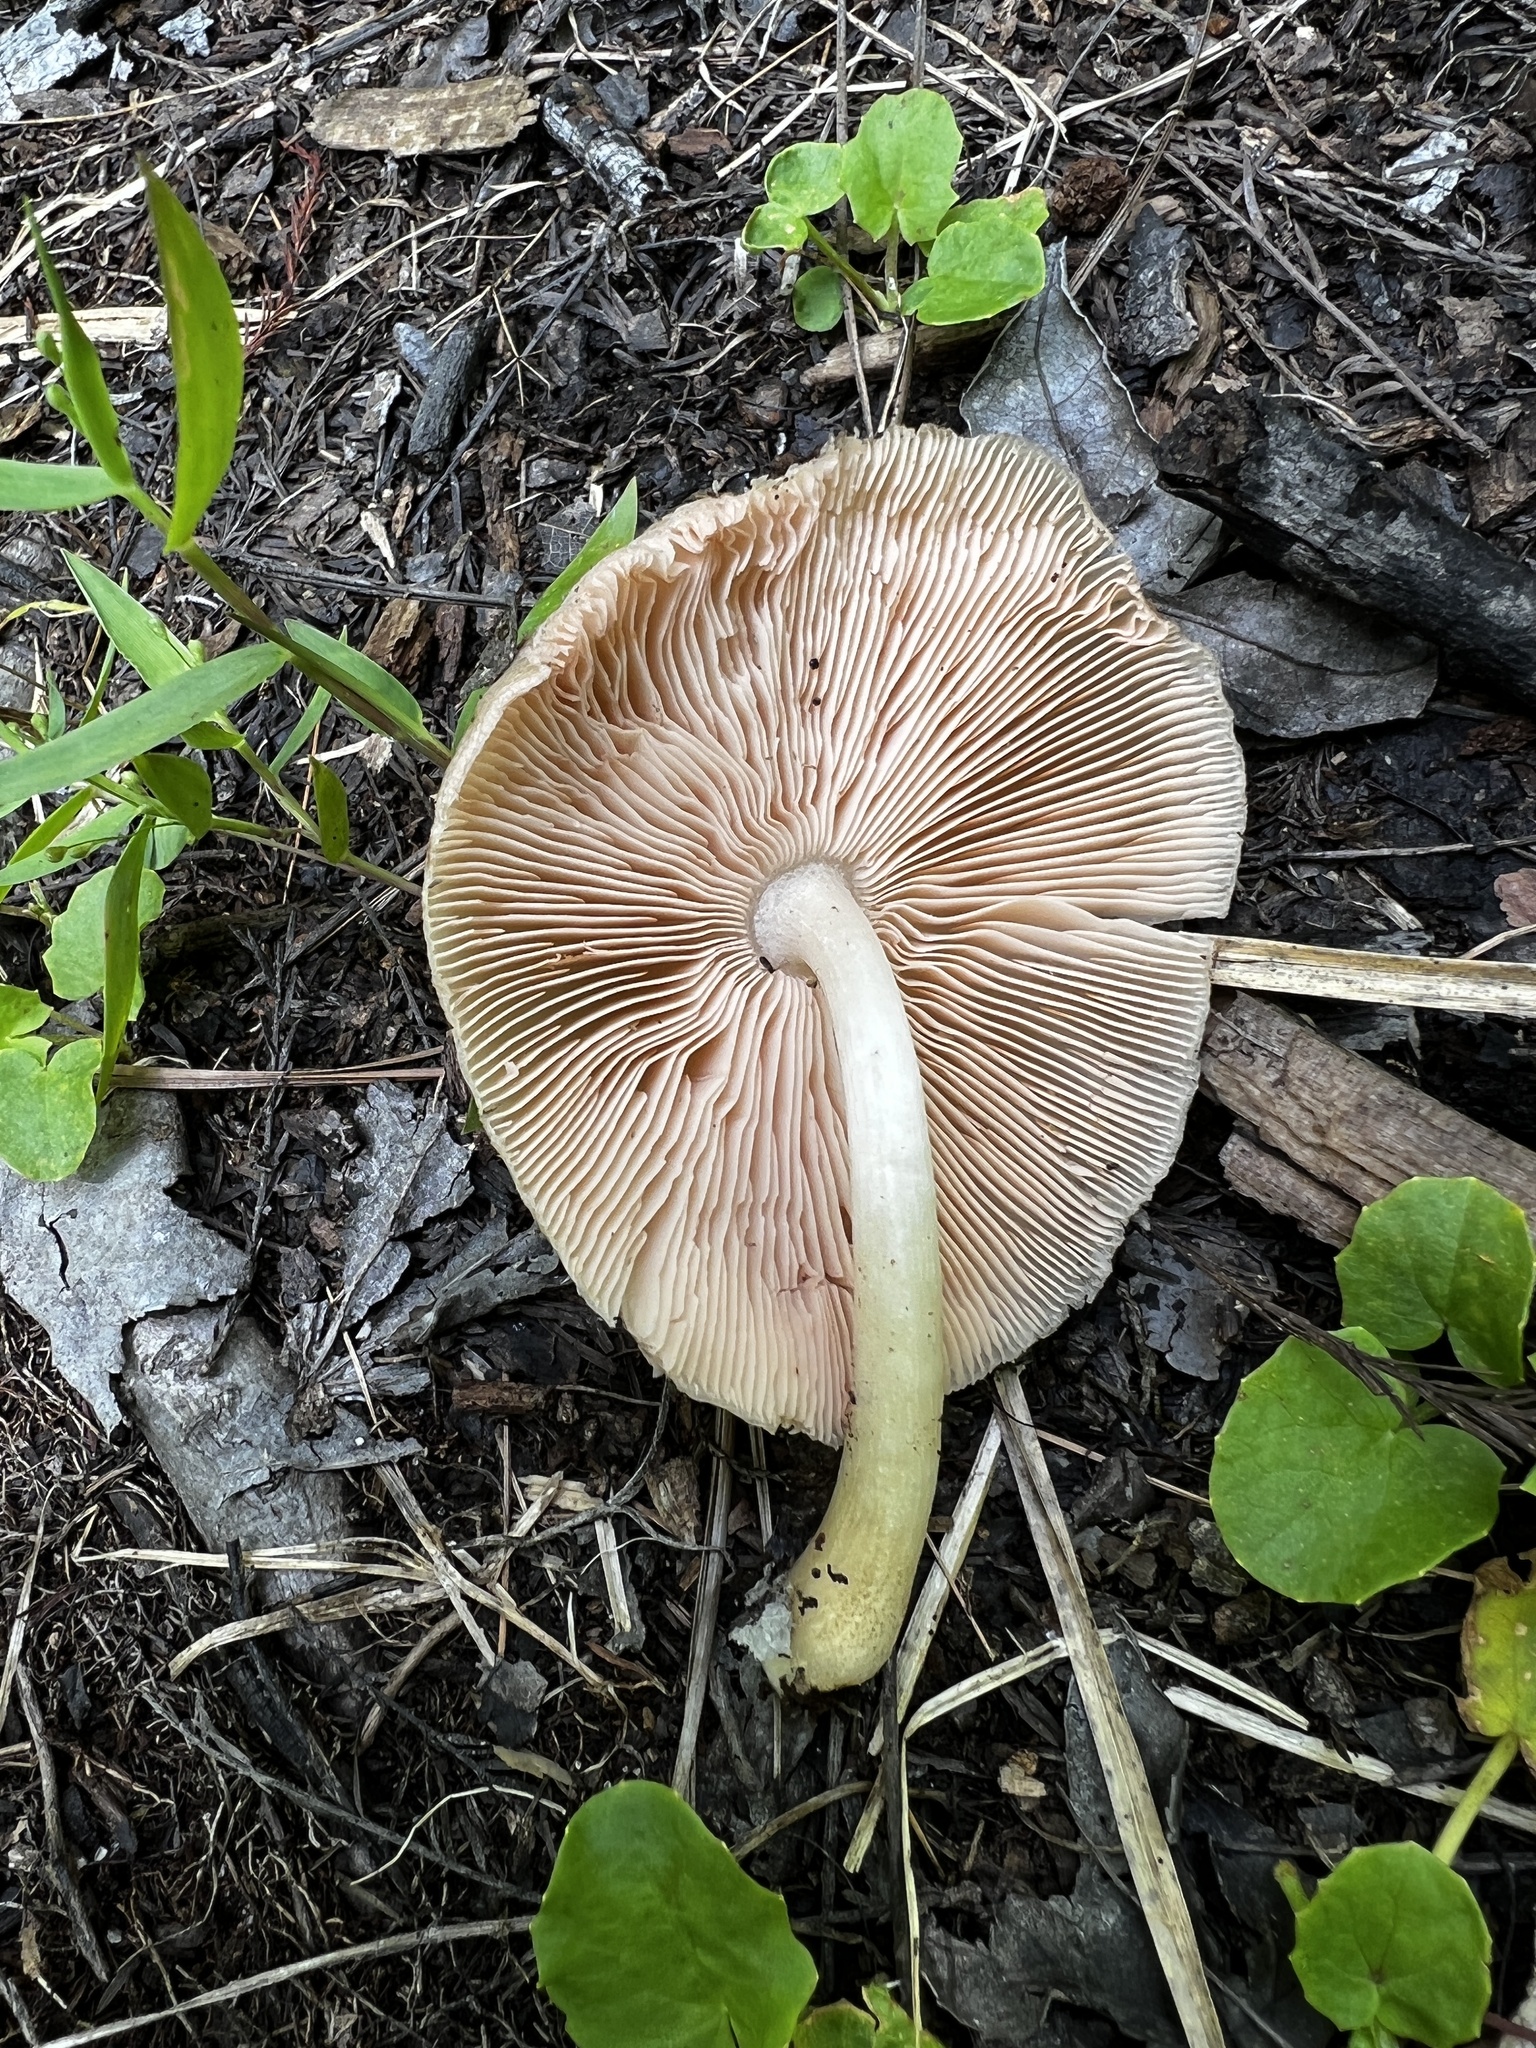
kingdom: Fungi
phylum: Basidiomycota
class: Agaricomycetes
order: Agaricales
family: Pluteaceae
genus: Pluteus
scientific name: Pluteus petasatus
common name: Scaly shield
